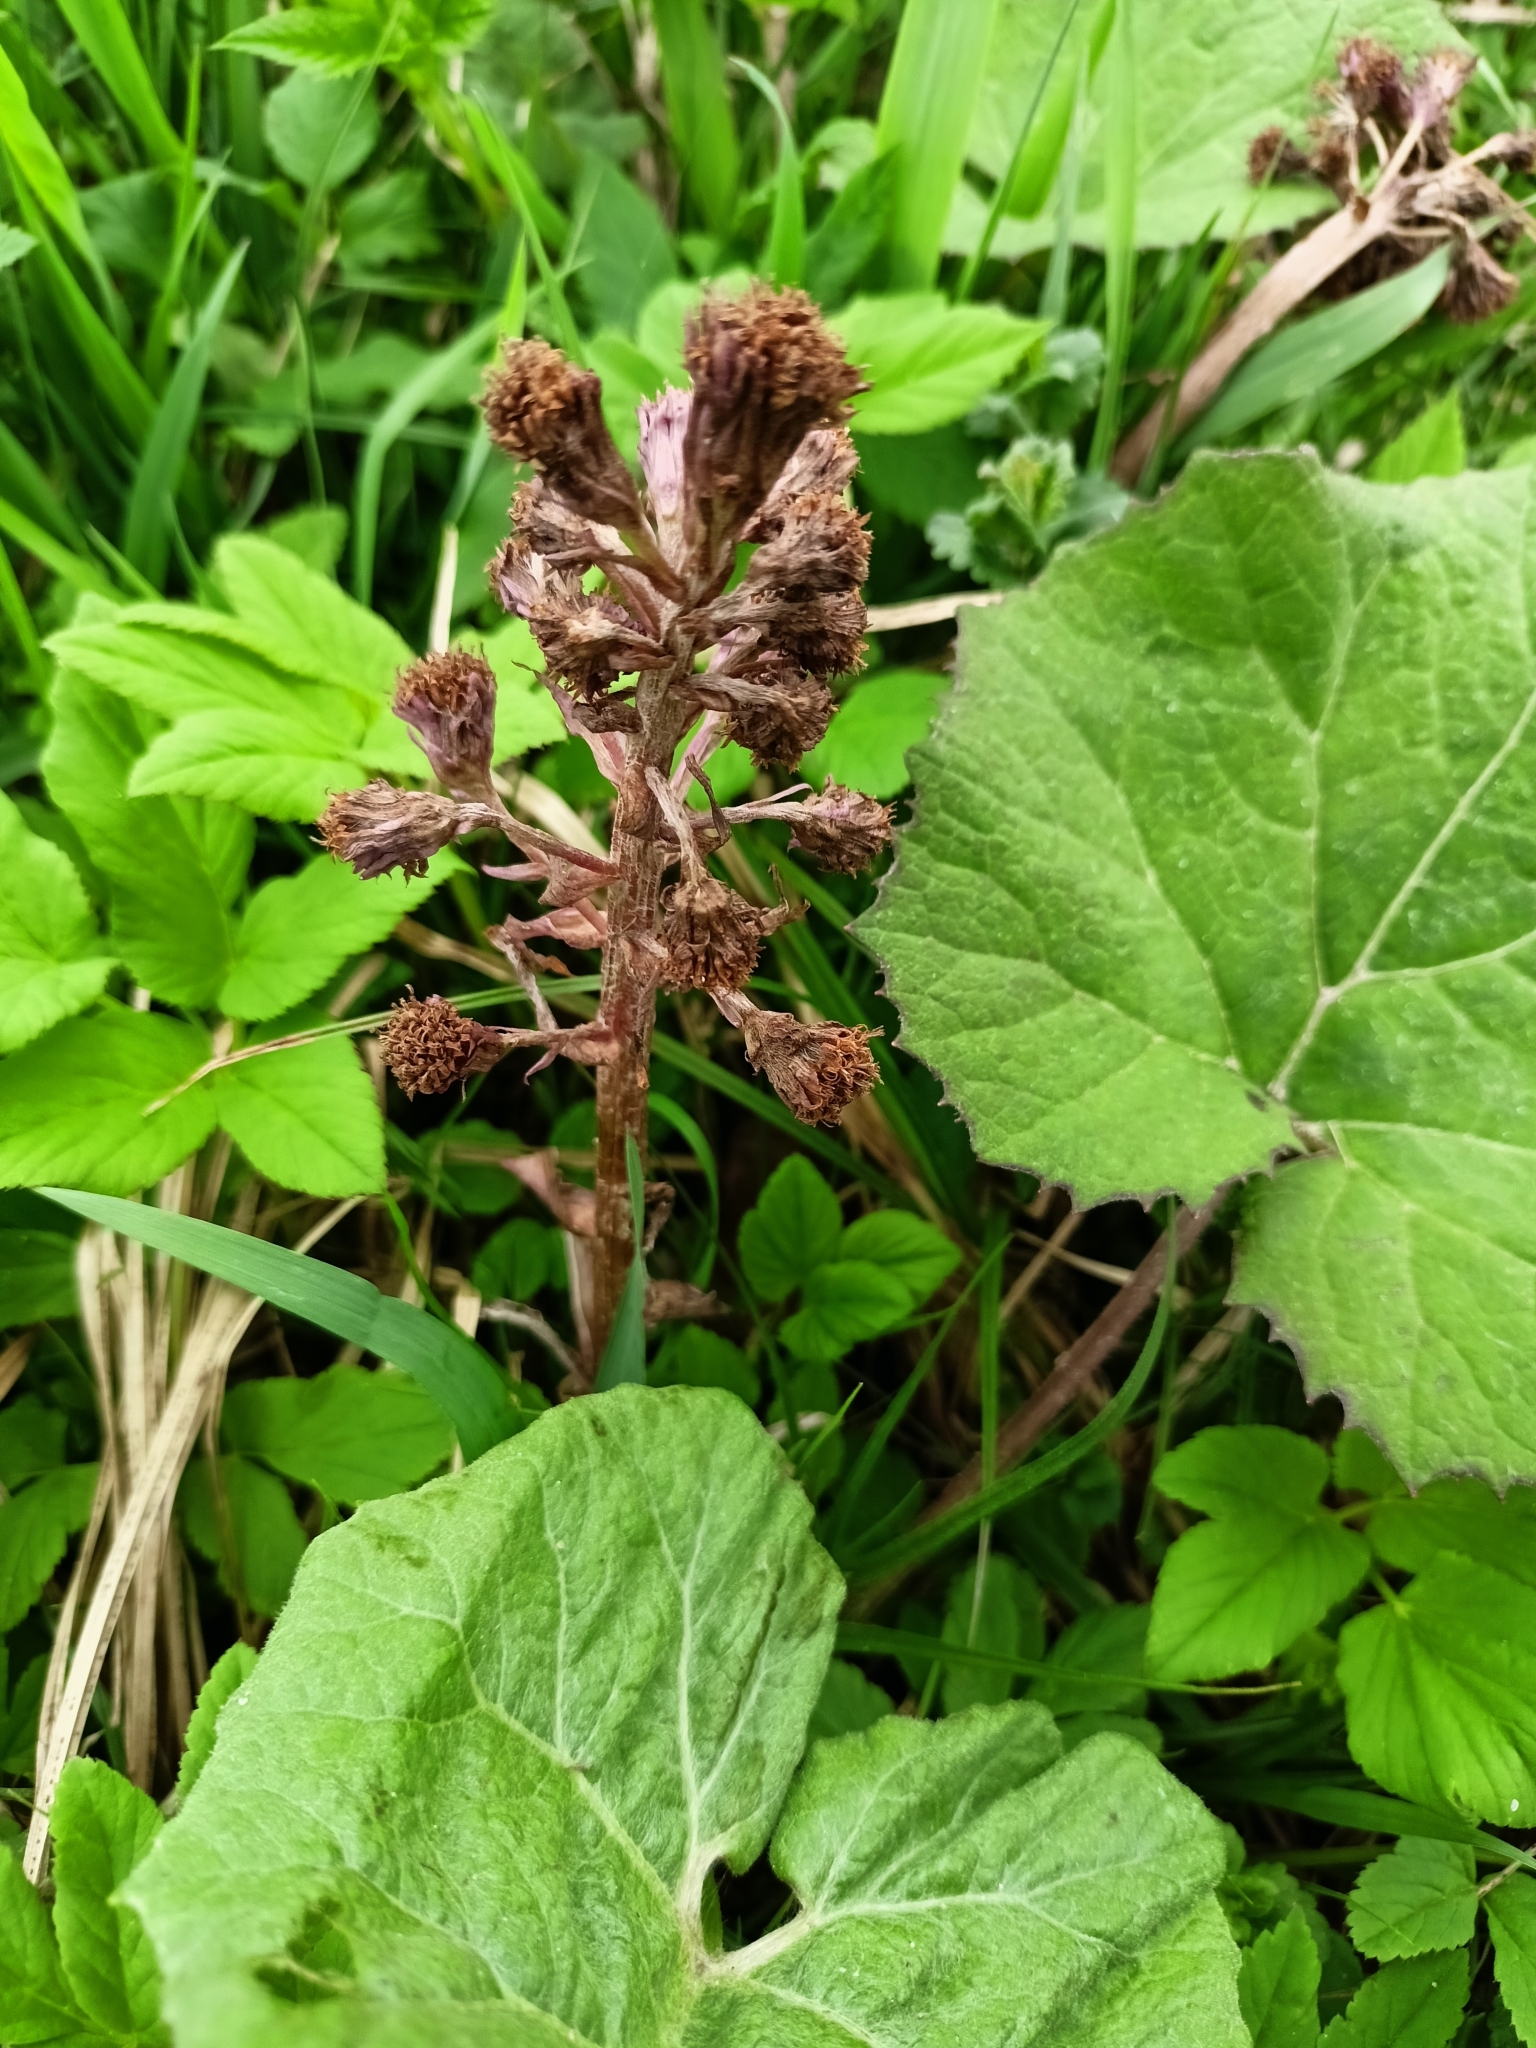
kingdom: Plantae
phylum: Tracheophyta
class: Magnoliopsida
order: Asterales
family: Asteraceae
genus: Petasites
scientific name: Petasites hybridus
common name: Butterbur
